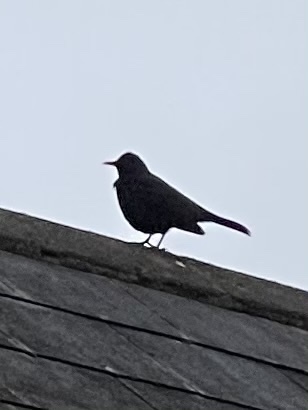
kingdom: Animalia
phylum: Chordata
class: Aves
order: Passeriformes
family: Turdidae
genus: Turdus
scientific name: Turdus merula
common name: Common blackbird
